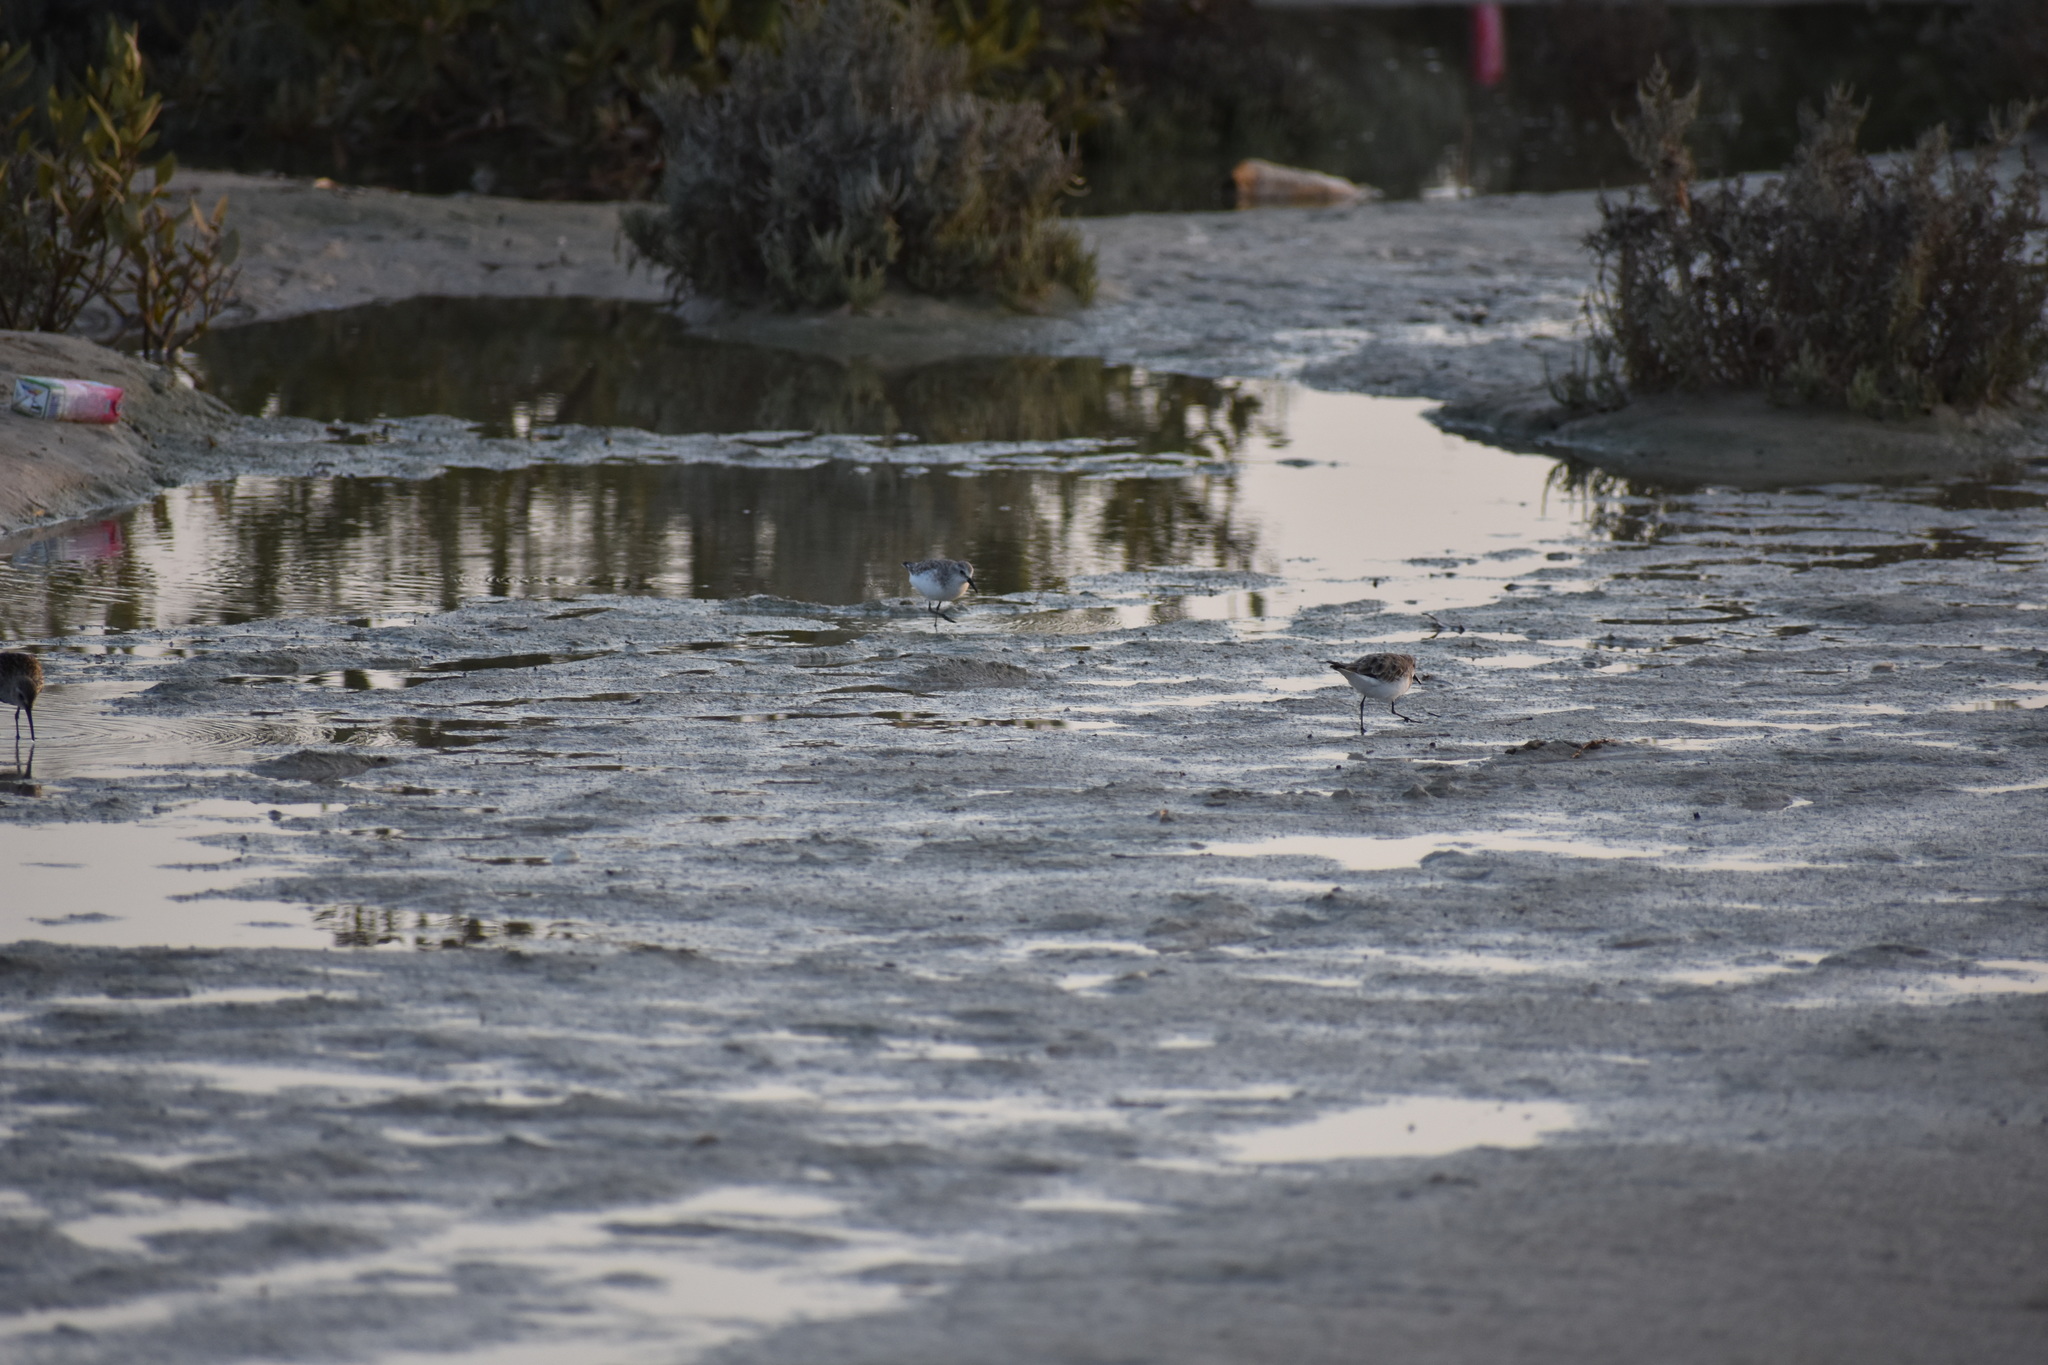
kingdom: Animalia
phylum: Chordata
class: Aves
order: Charadriiformes
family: Scolopacidae
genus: Calidris
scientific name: Calidris minuta
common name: Little stint
